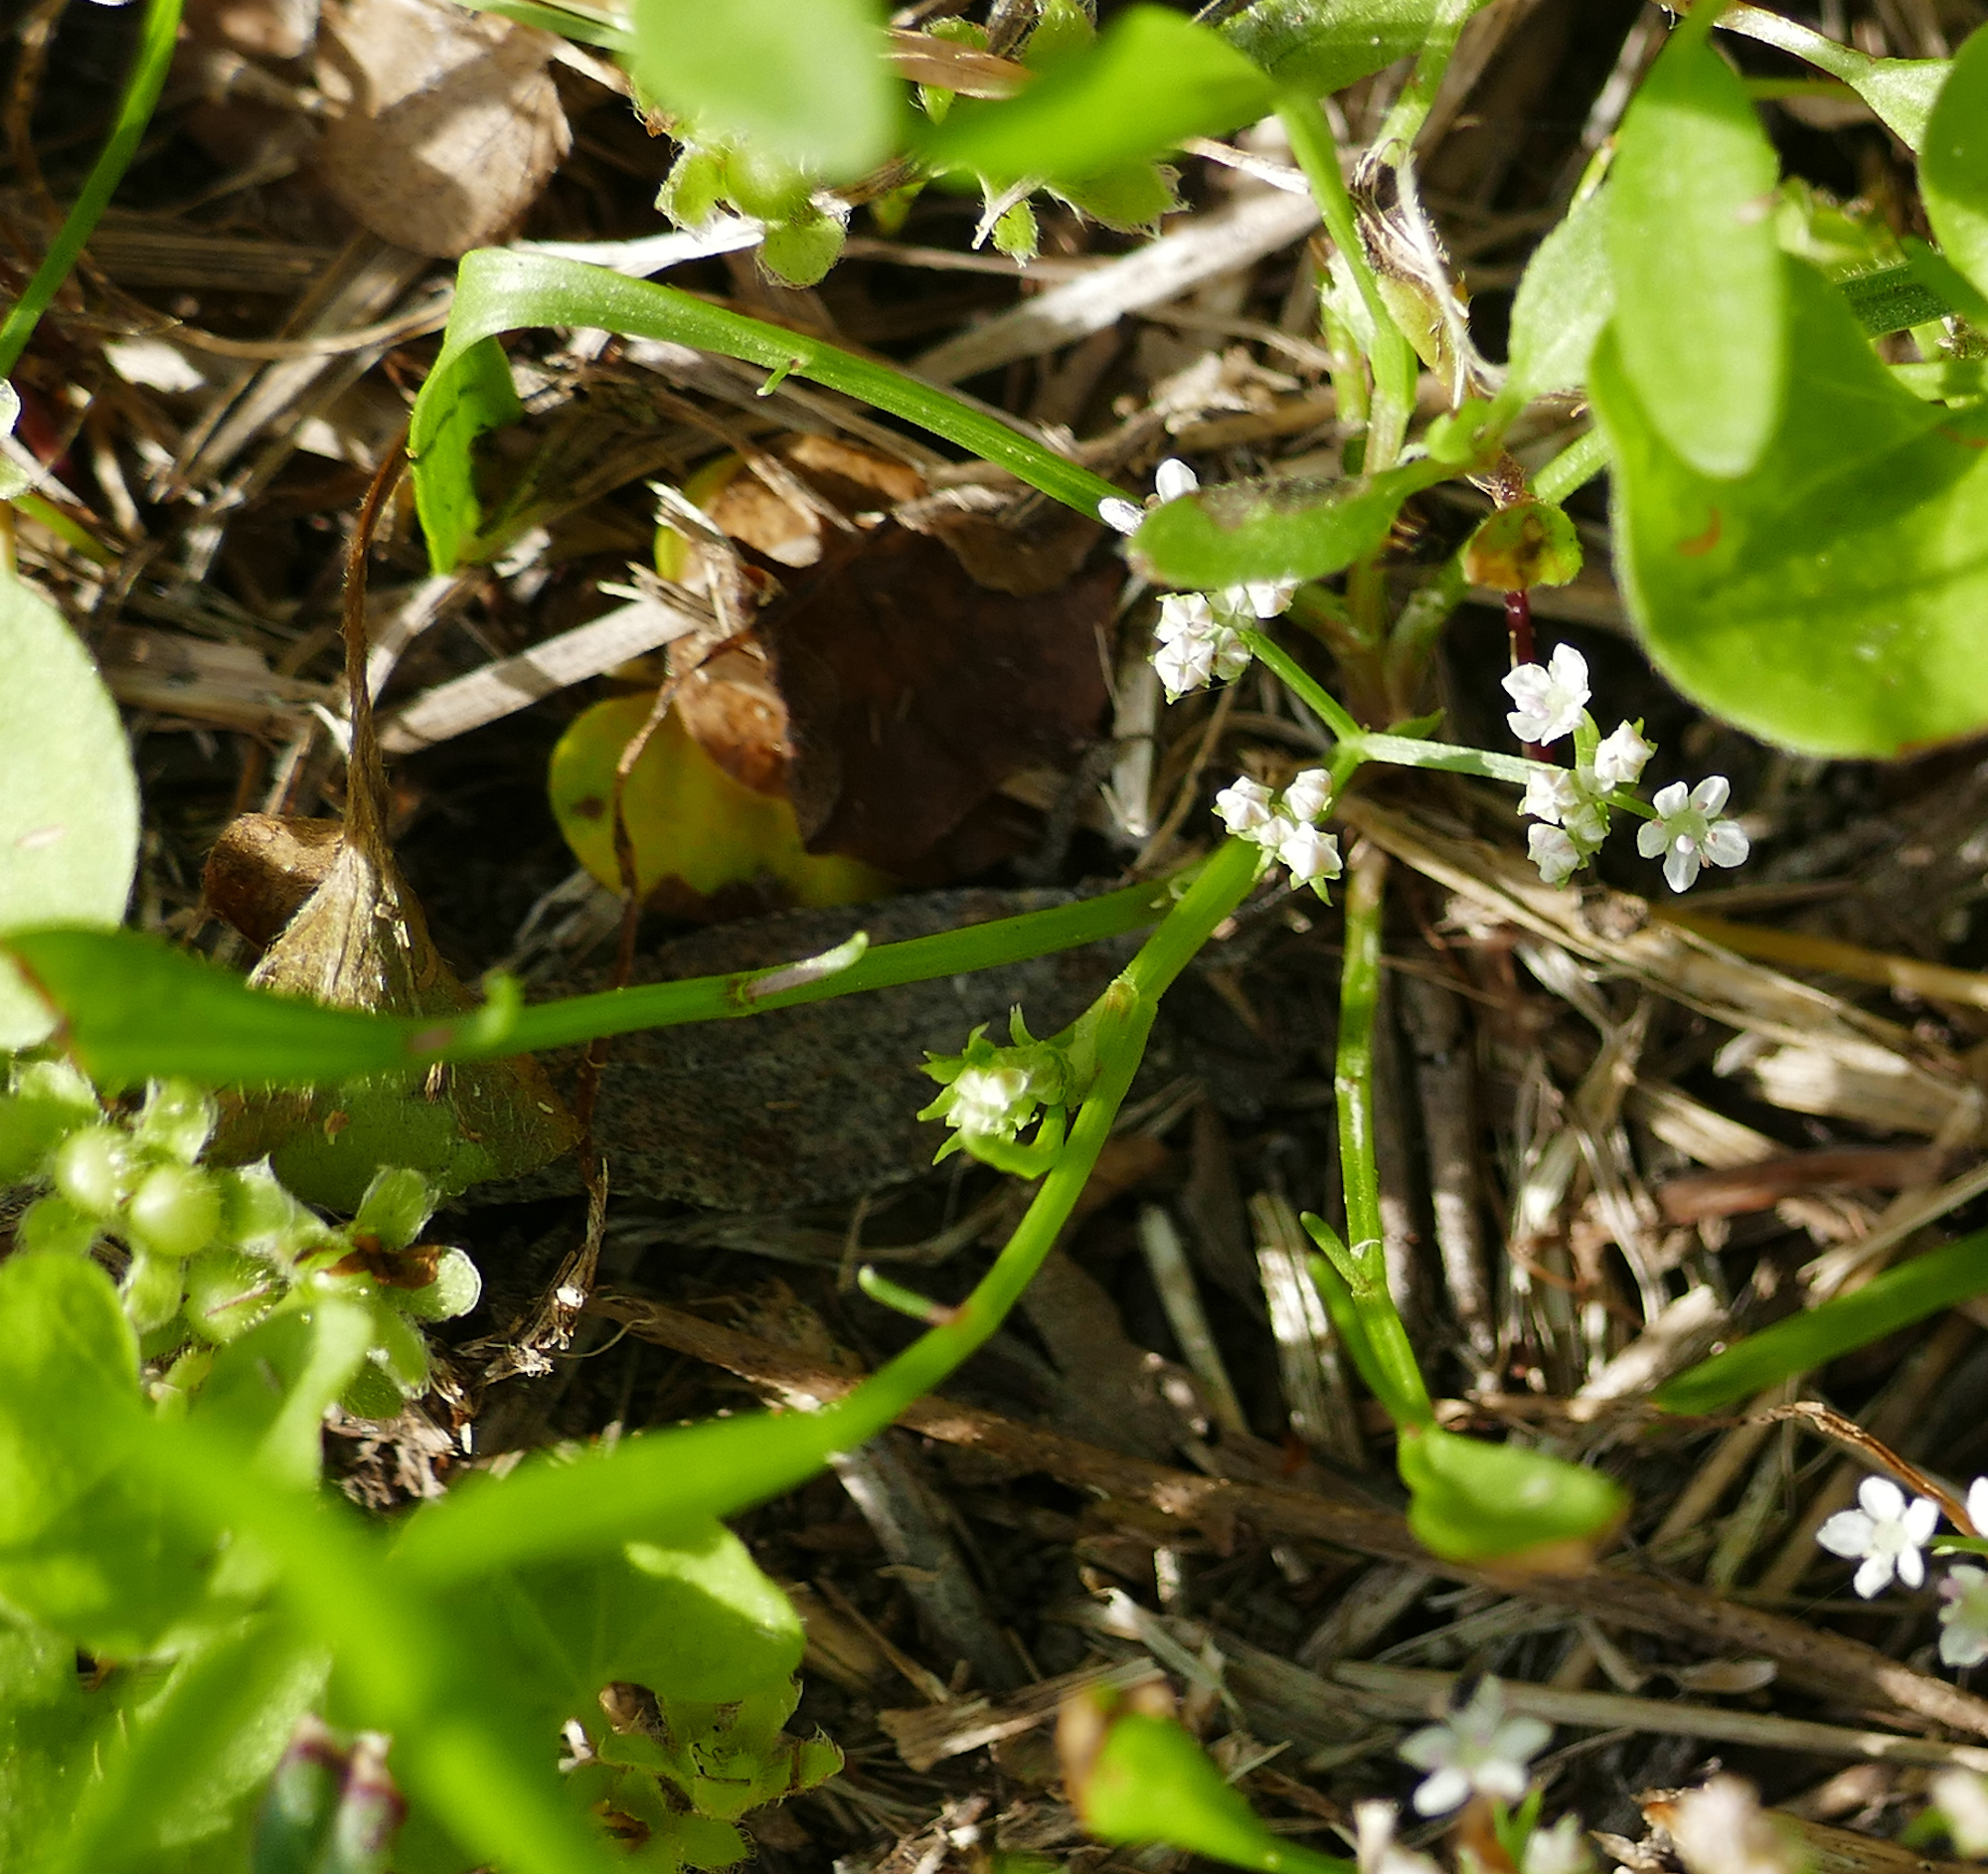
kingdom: Plantae
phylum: Tracheophyta
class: Magnoliopsida
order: Apiales
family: Apiaceae
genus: Limnosciadium
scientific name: Limnosciadium pinnatum
